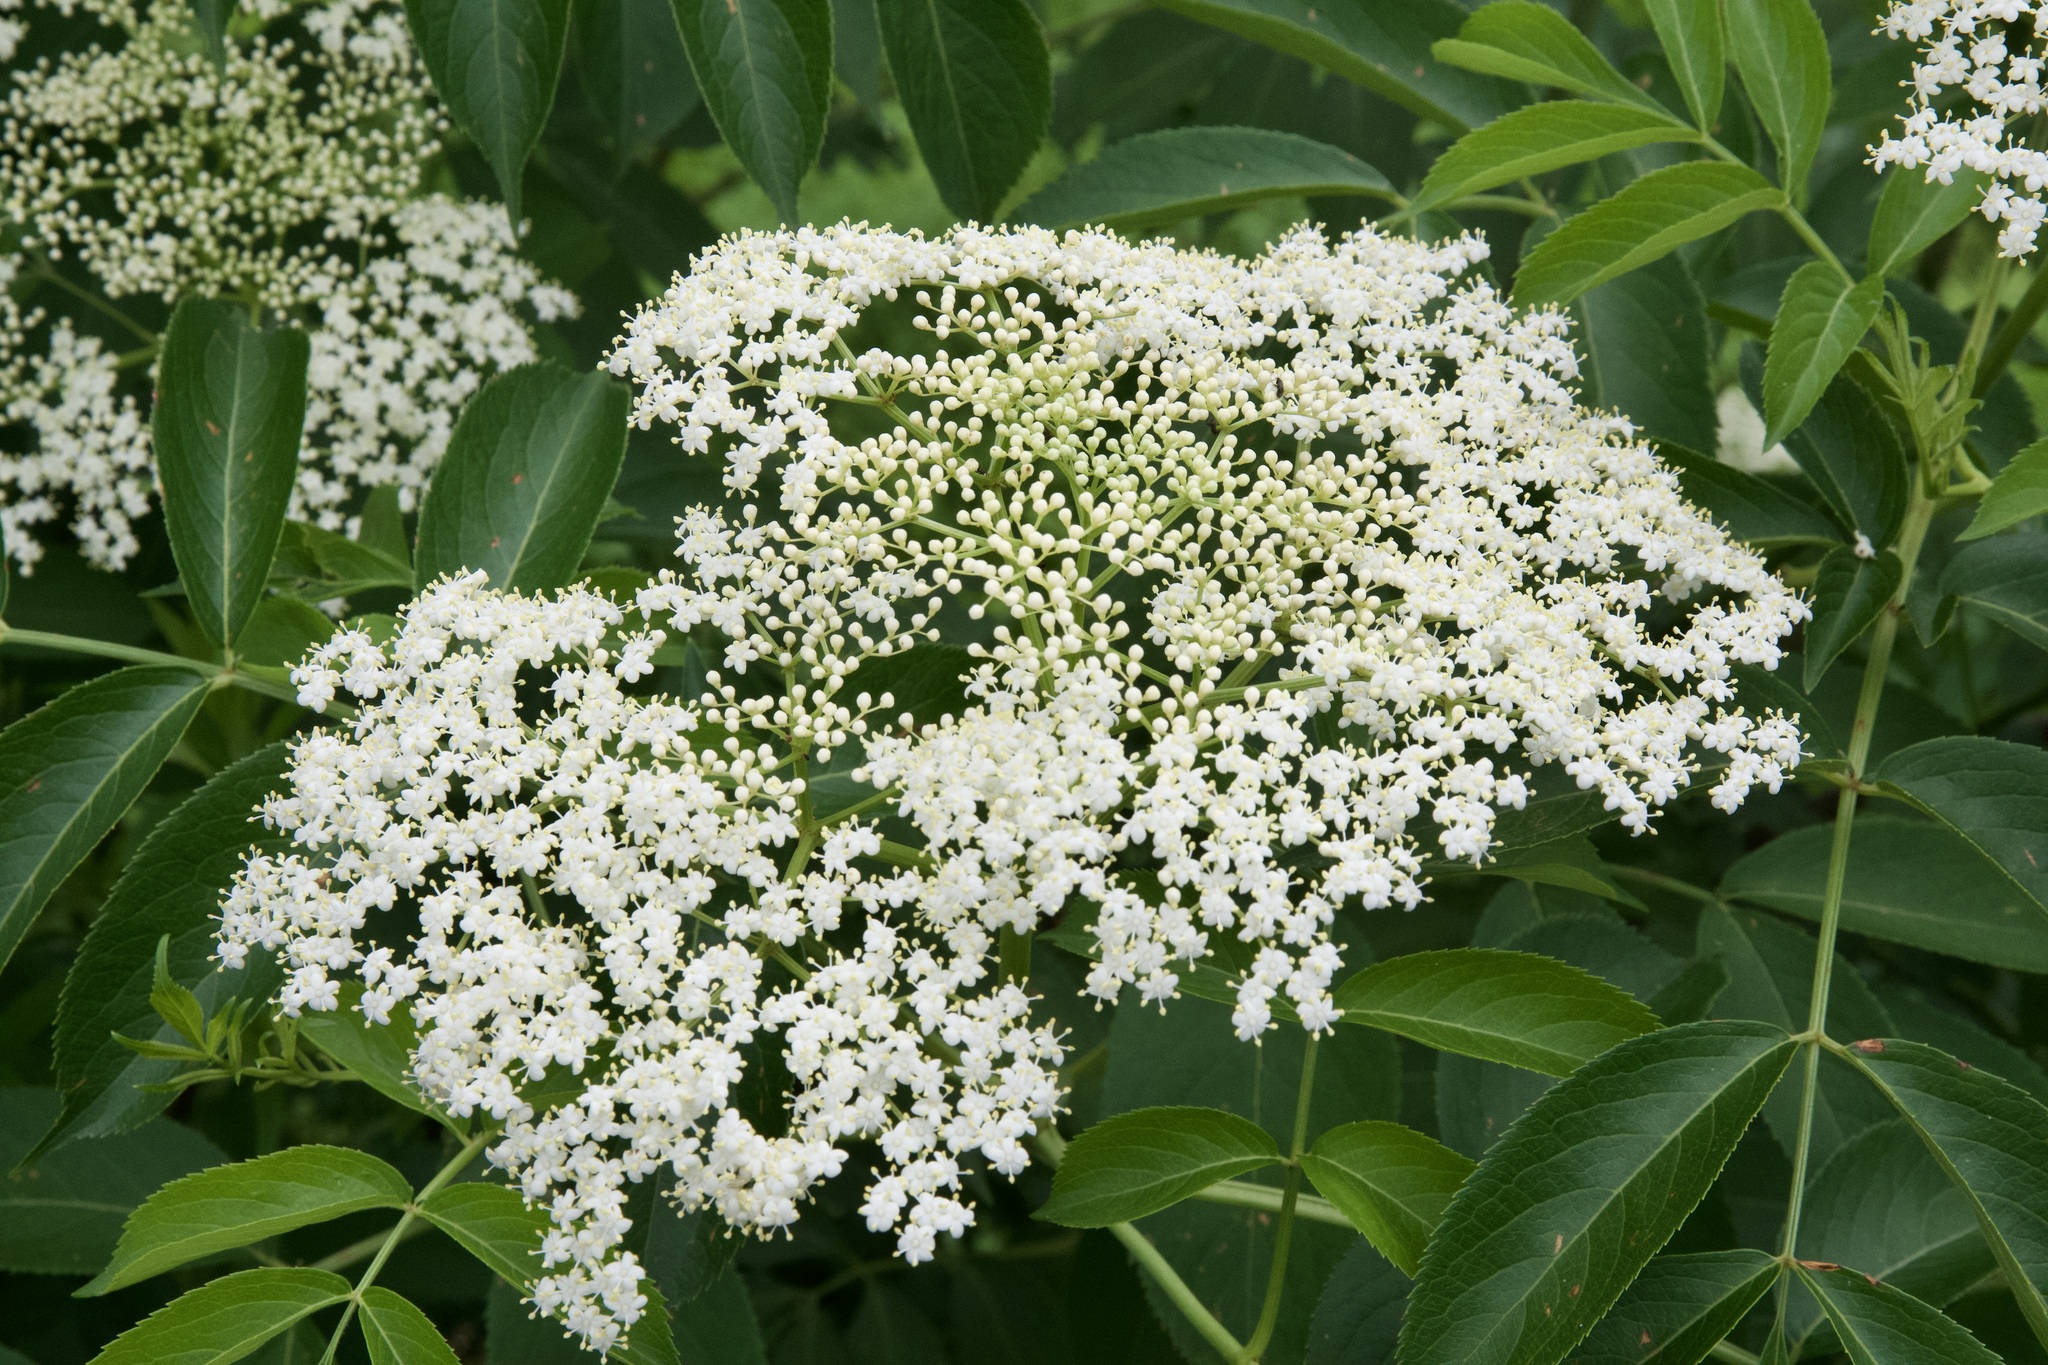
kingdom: Plantae
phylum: Tracheophyta
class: Magnoliopsida
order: Dipsacales
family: Viburnaceae
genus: Sambucus
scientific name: Sambucus canadensis
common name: American elder
